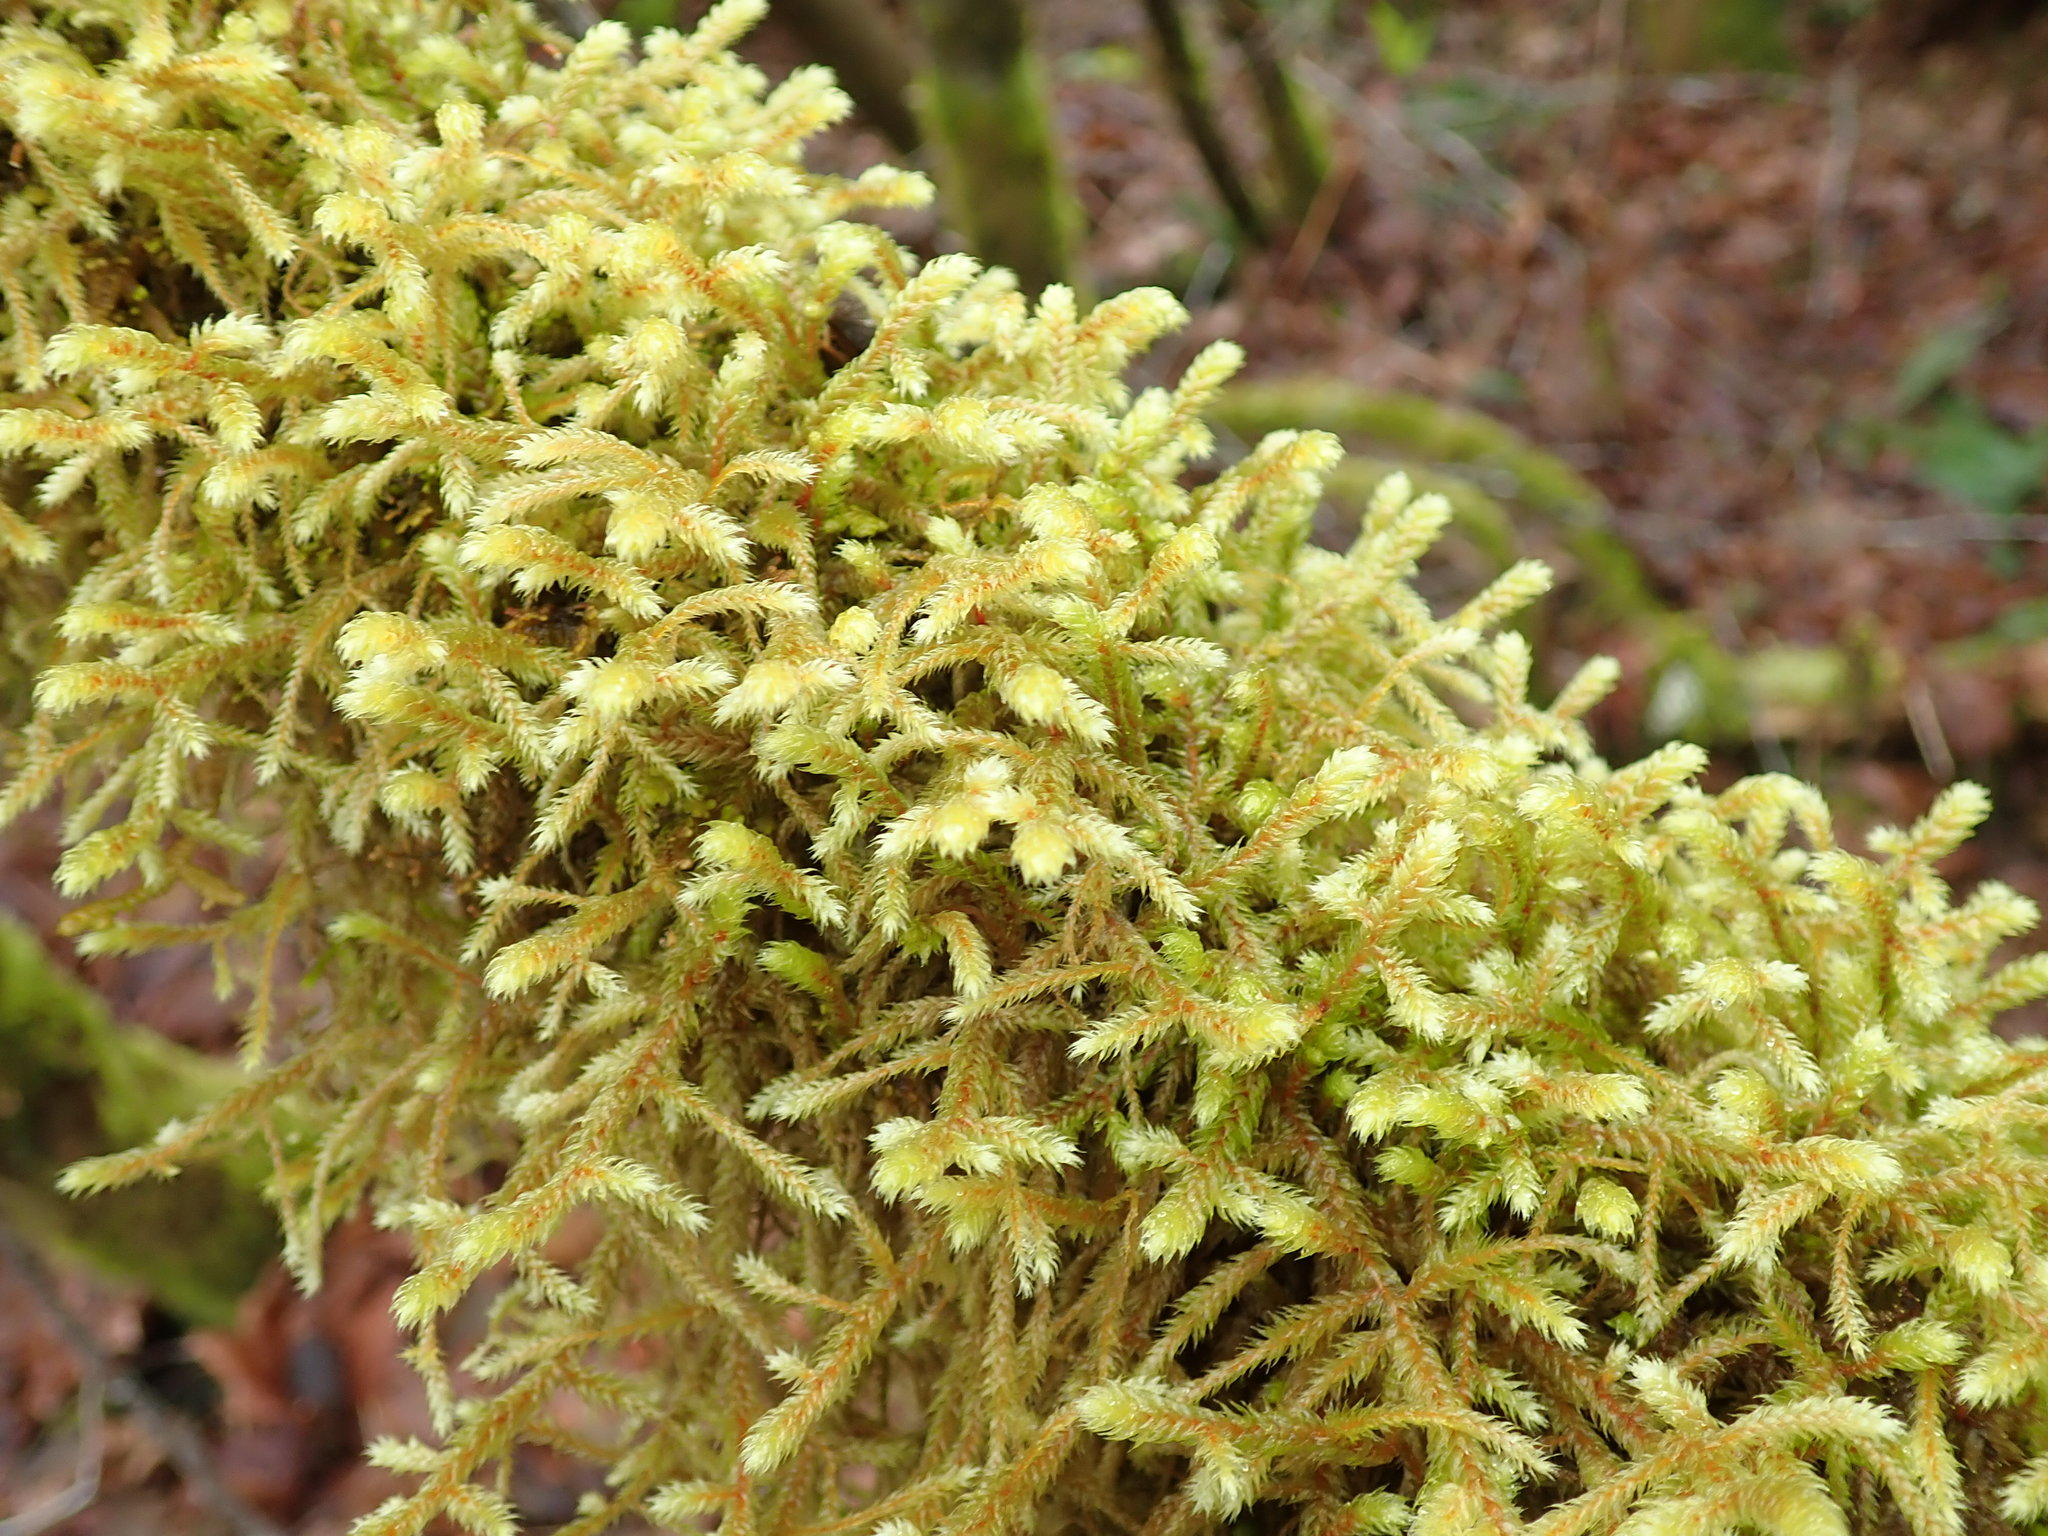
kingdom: Plantae
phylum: Bryophyta
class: Bryopsida
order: Hypnales
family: Antitrichiaceae
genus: Antitrichia
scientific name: Antitrichia curtipendula
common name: Pendulous wing-moss
